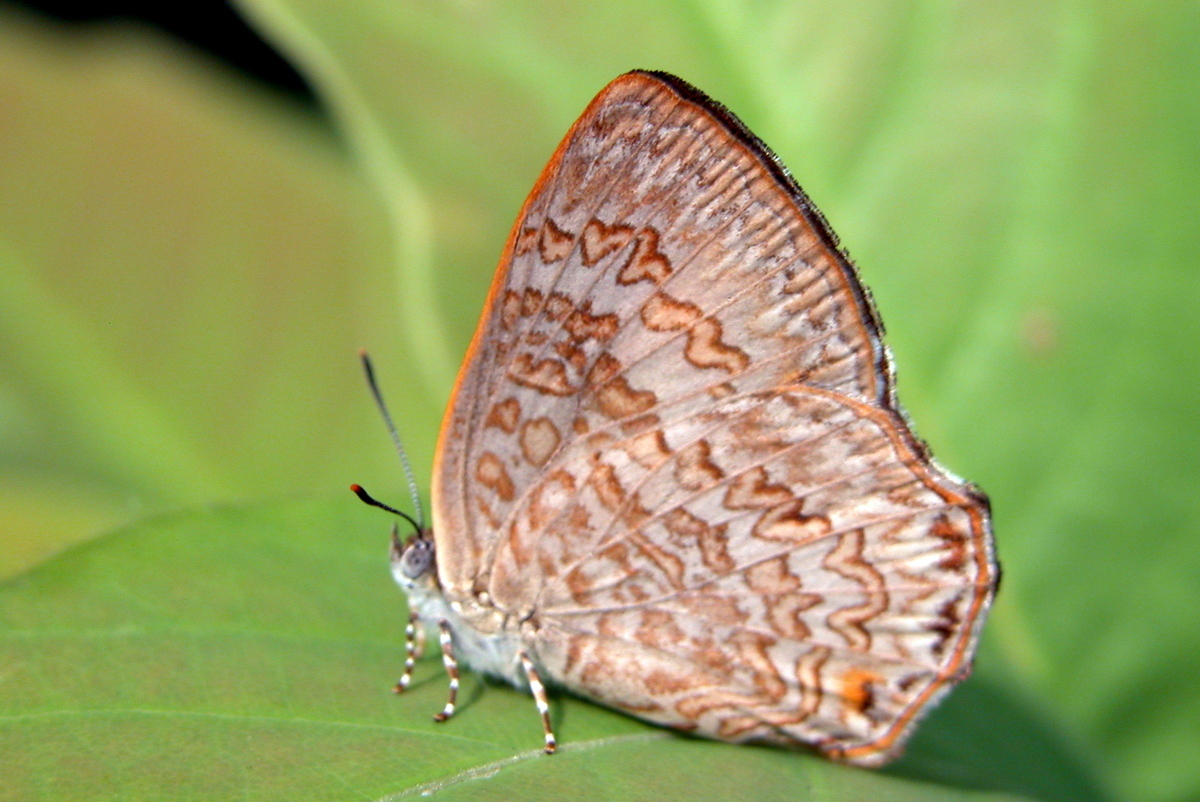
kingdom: Animalia
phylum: Arthropoda
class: Insecta
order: Lepidoptera
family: Lycaenidae
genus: Poritia
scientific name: Poritia hewitsoni
